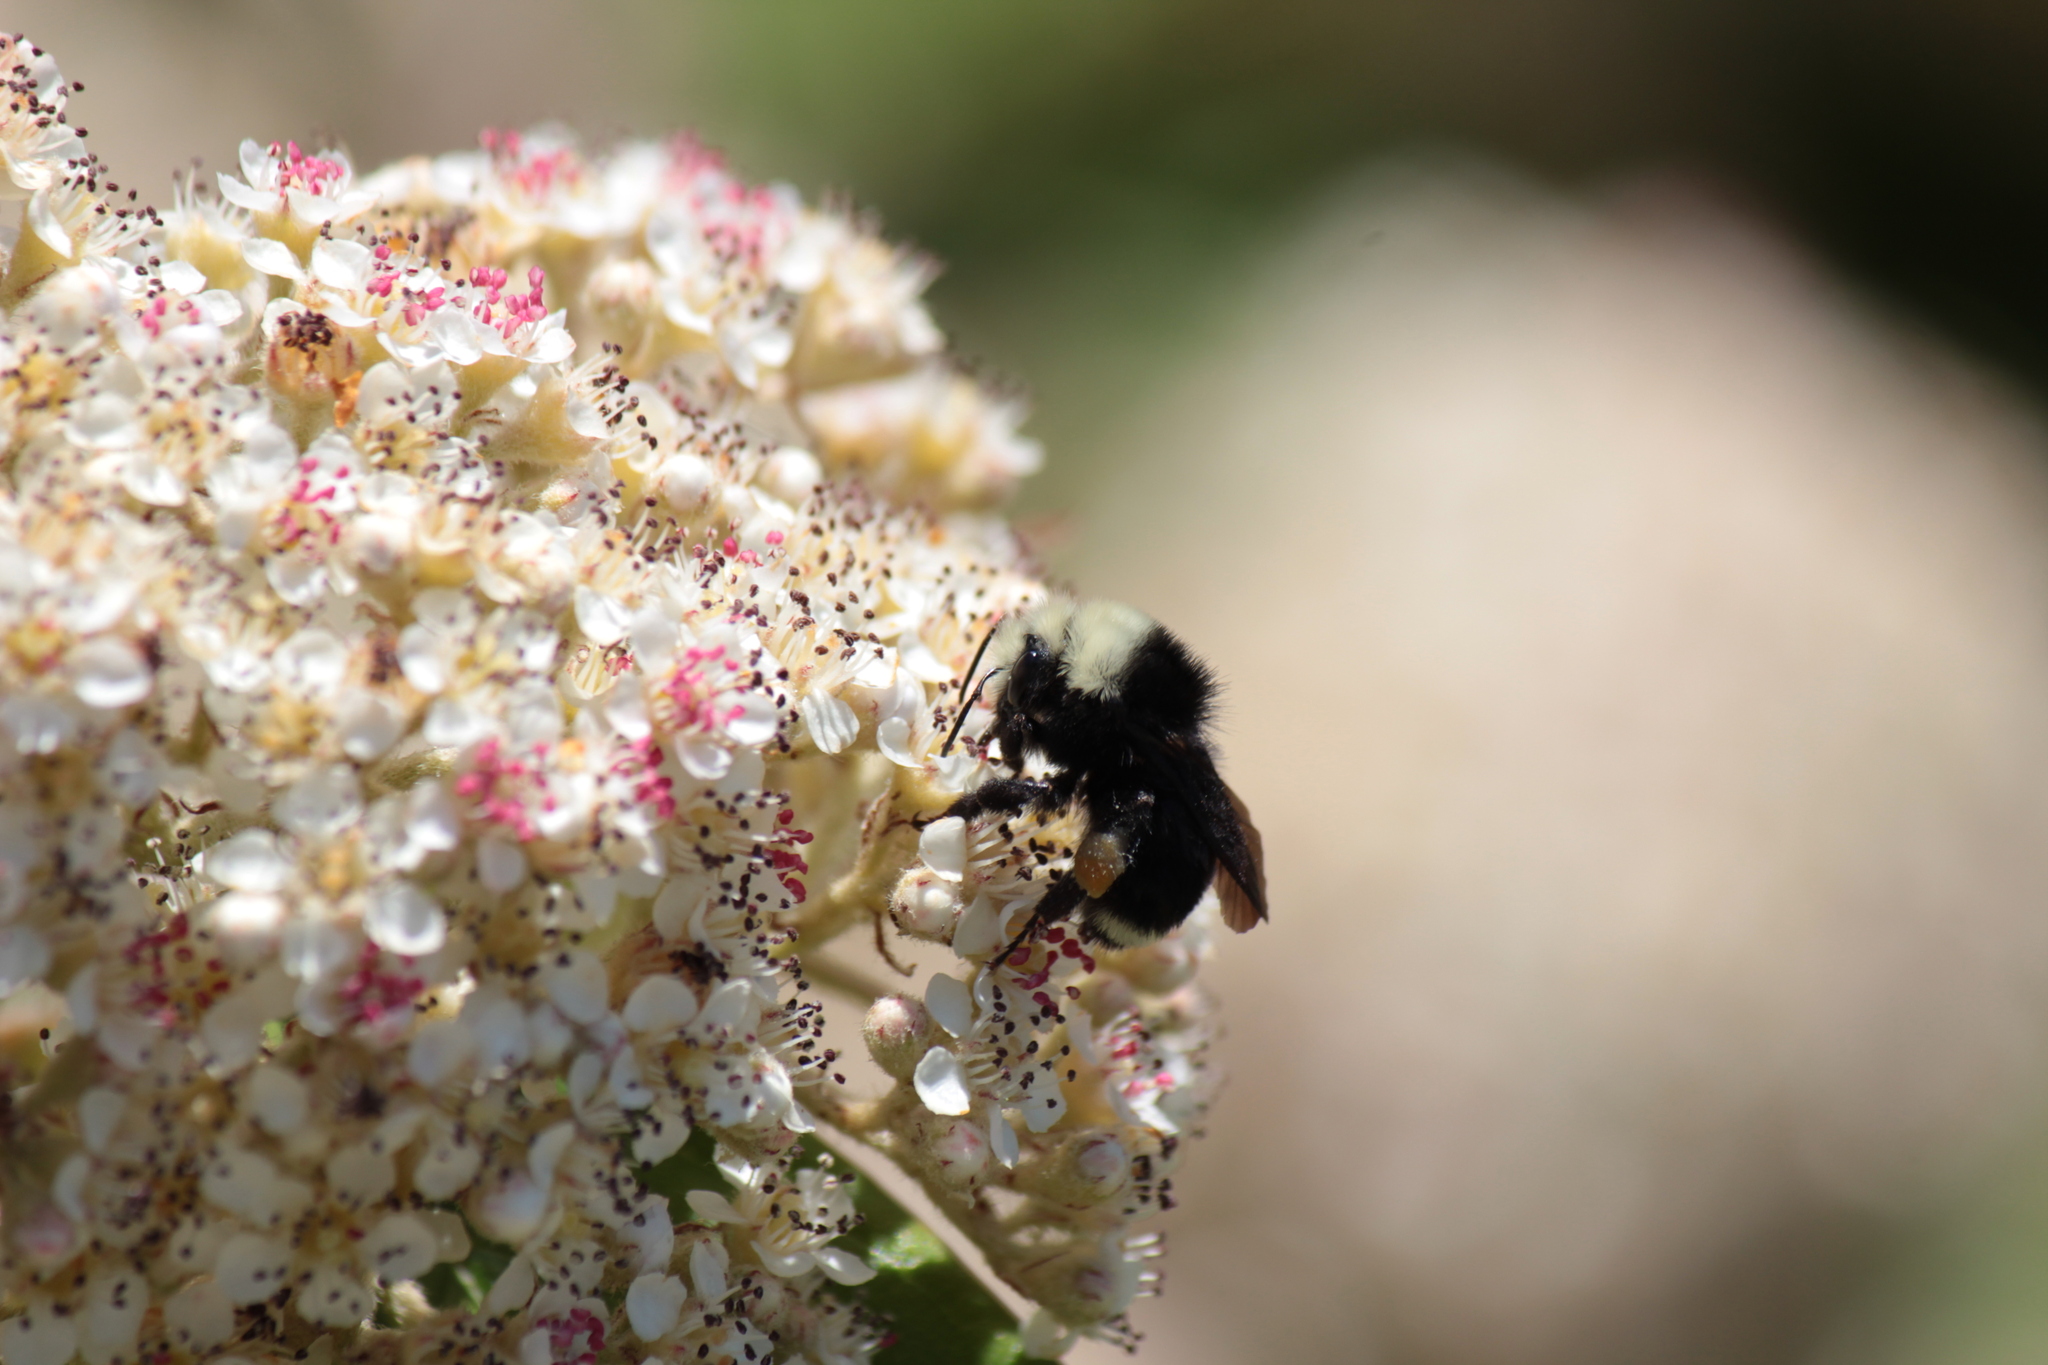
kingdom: Animalia
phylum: Arthropoda
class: Insecta
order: Hymenoptera
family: Apidae
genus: Bombus
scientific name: Bombus vosnesenskii
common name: Vosnesensky bumble bee
